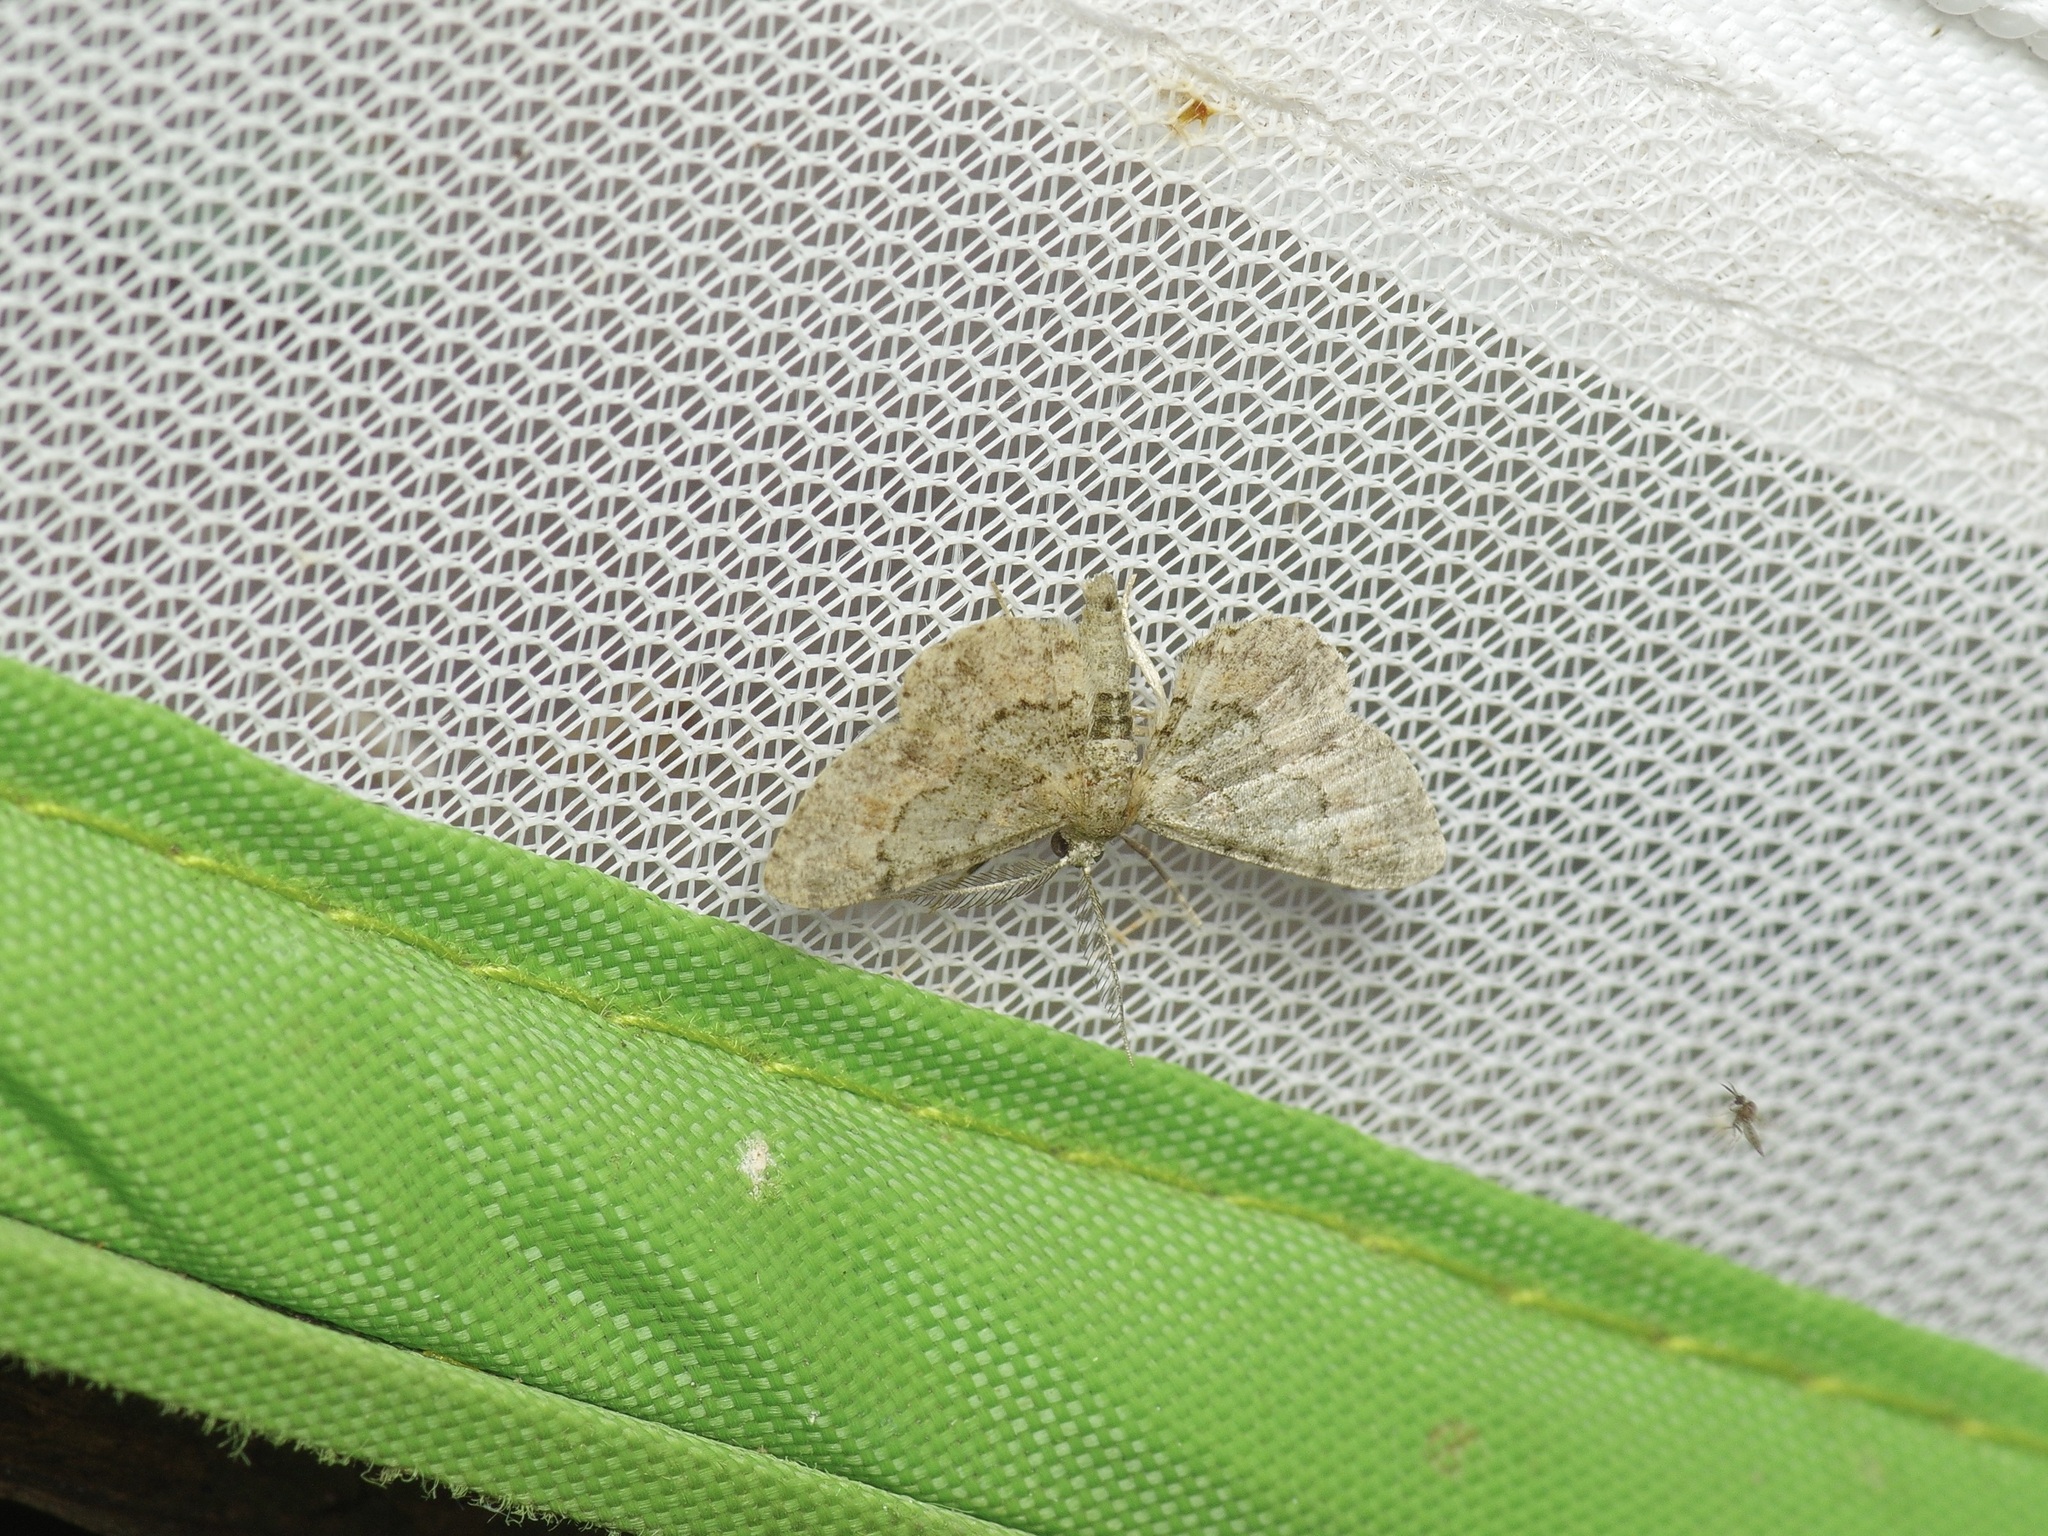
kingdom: Animalia
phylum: Arthropoda
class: Insecta
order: Lepidoptera
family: Geometridae
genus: Glenoides
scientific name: Glenoides texanaria
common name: Texas gray
